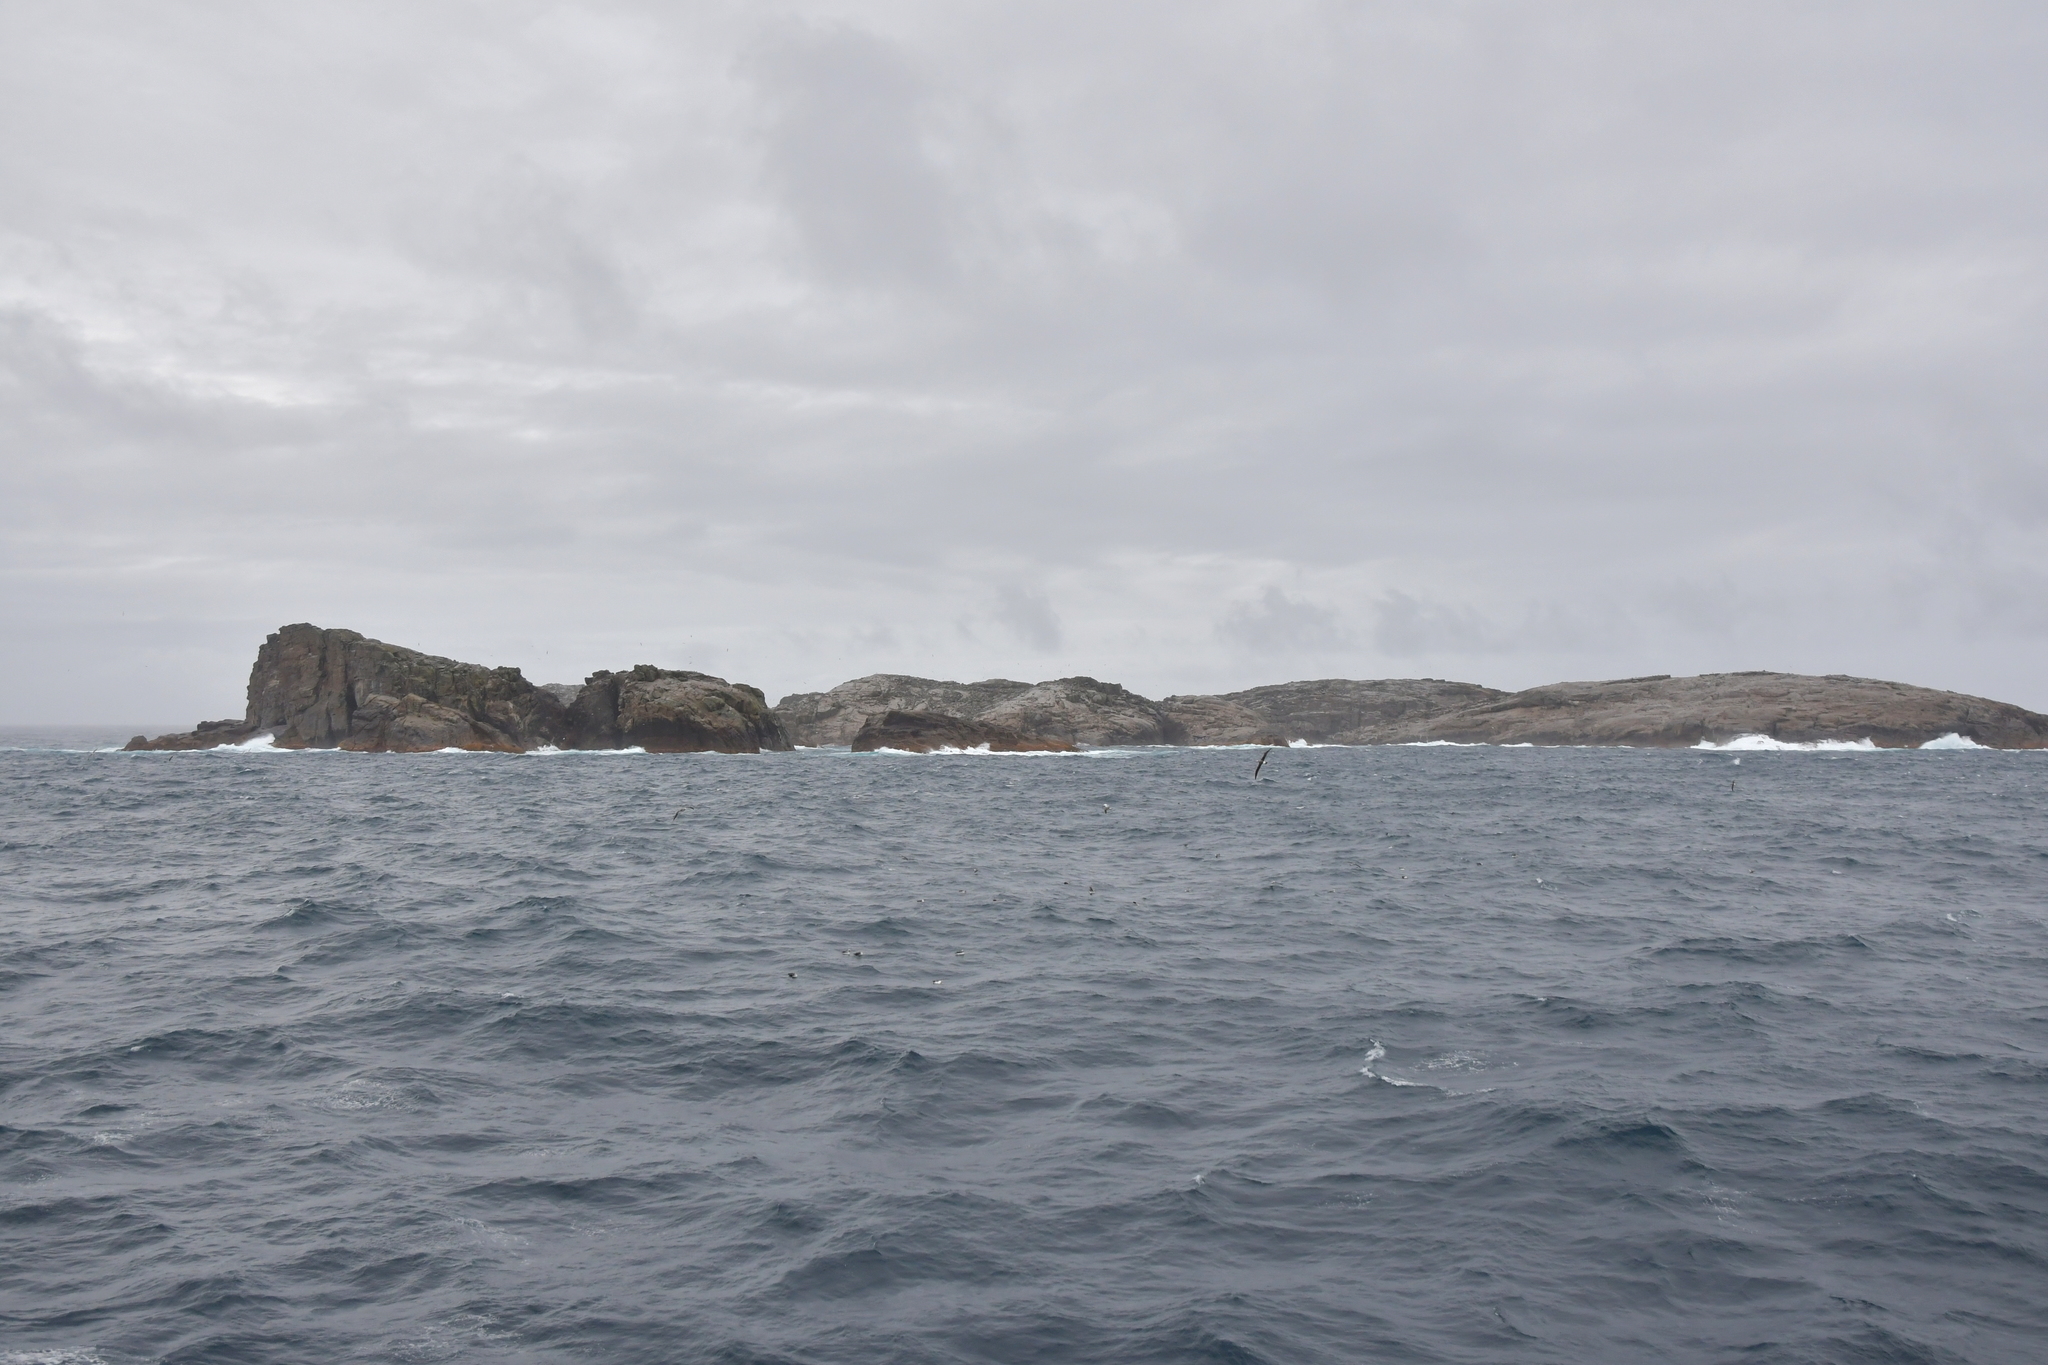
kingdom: Animalia
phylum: Chordata
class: Aves
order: Procellariiformes
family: Diomedeidae
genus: Thalassarche
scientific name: Thalassarche salvini
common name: Salvin's albatross
